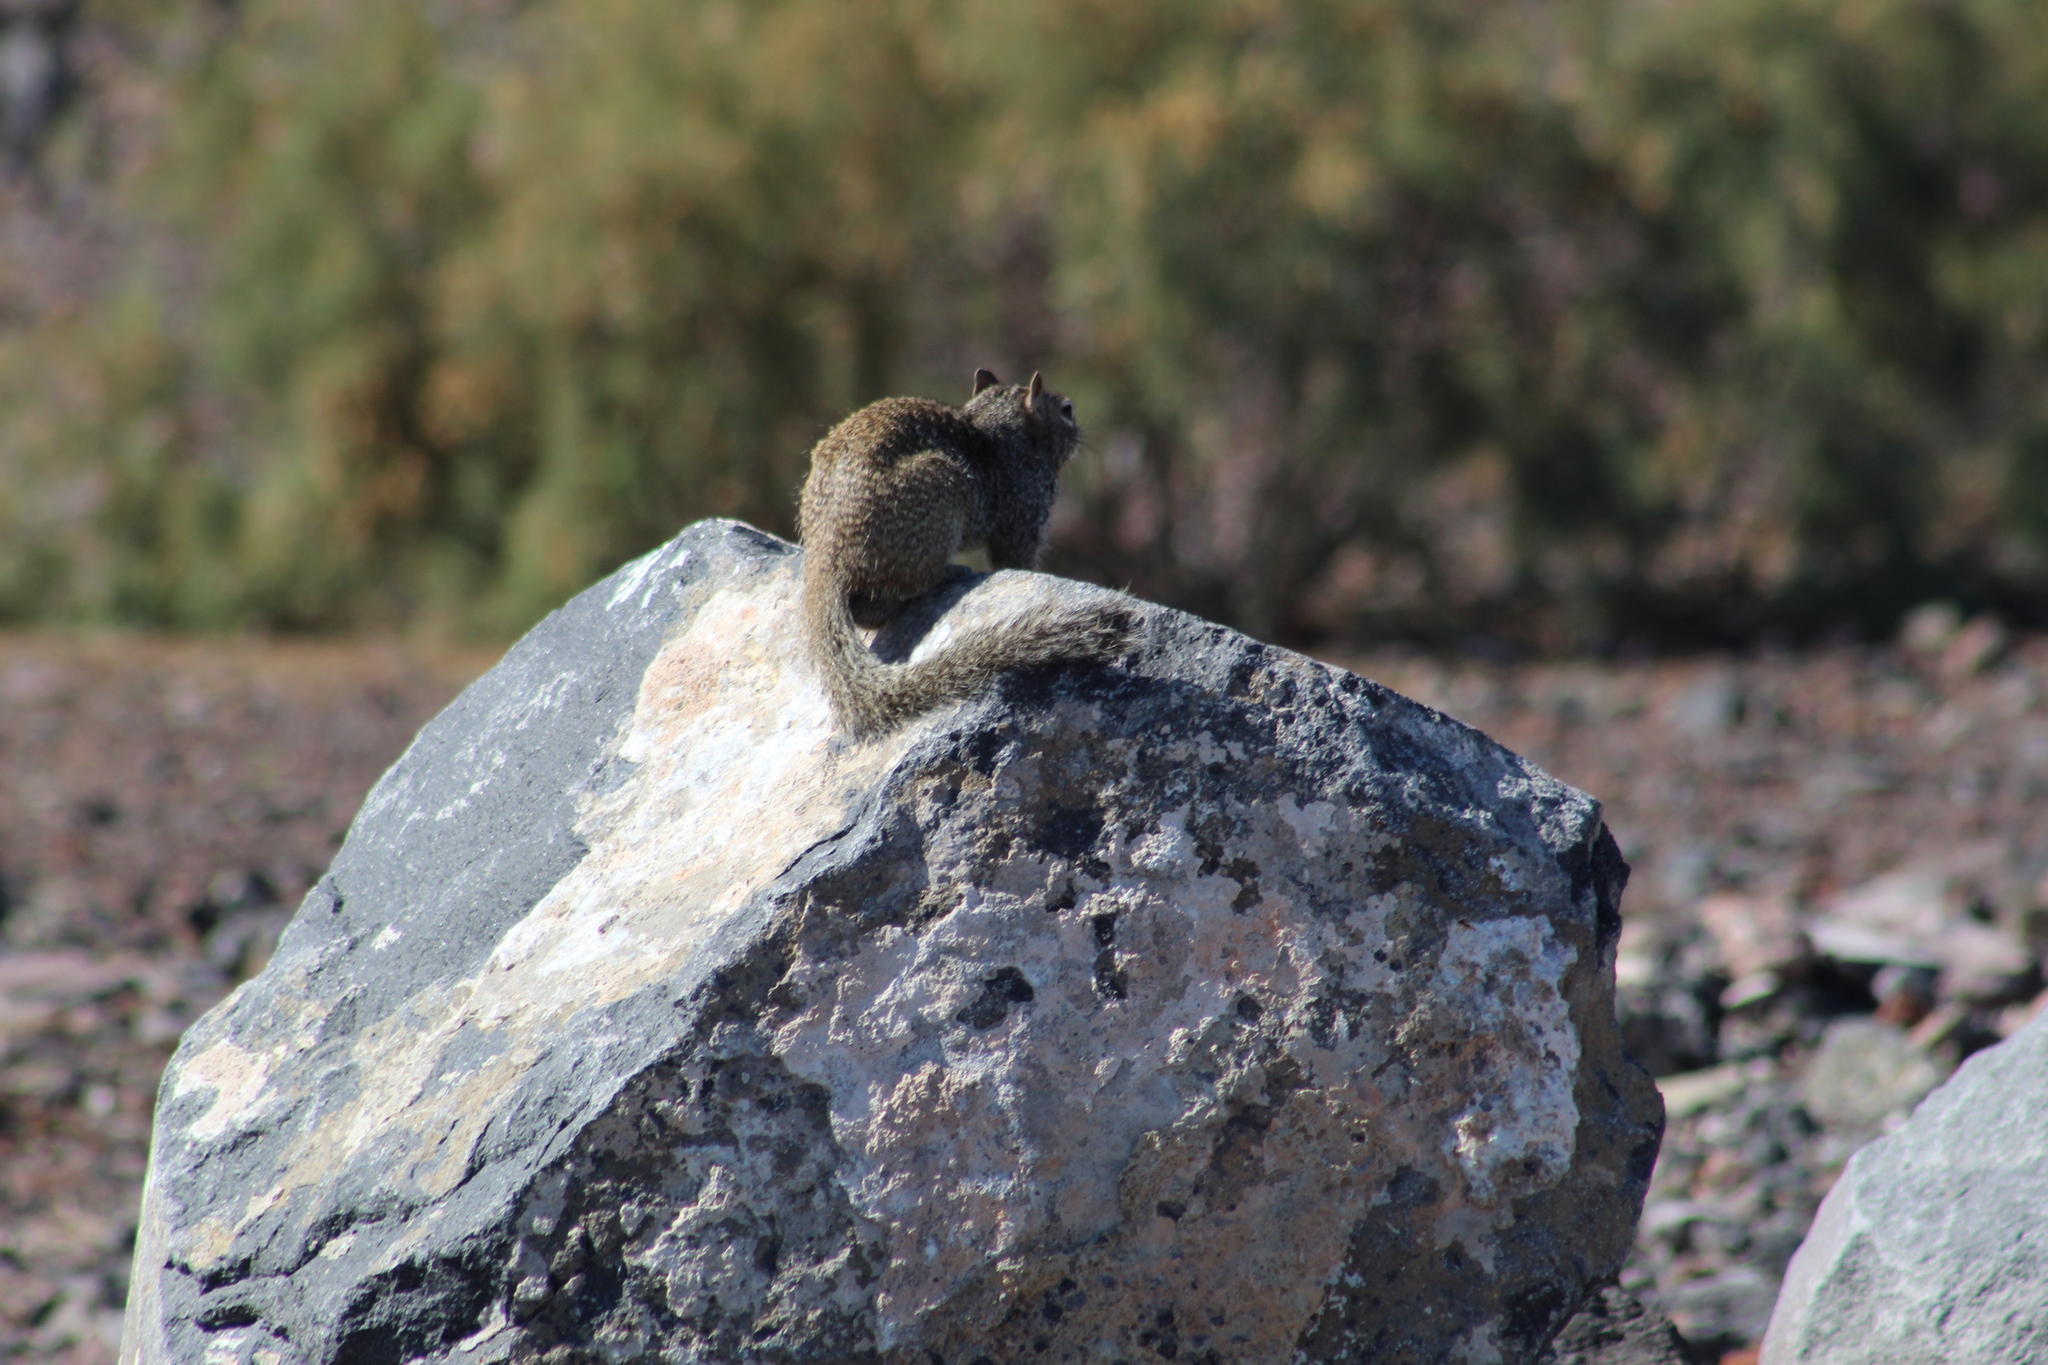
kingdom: Animalia
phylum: Chordata
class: Mammalia
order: Rodentia
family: Sciuridae
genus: Otospermophilus
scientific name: Otospermophilus variegatus
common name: Rock squirrel
